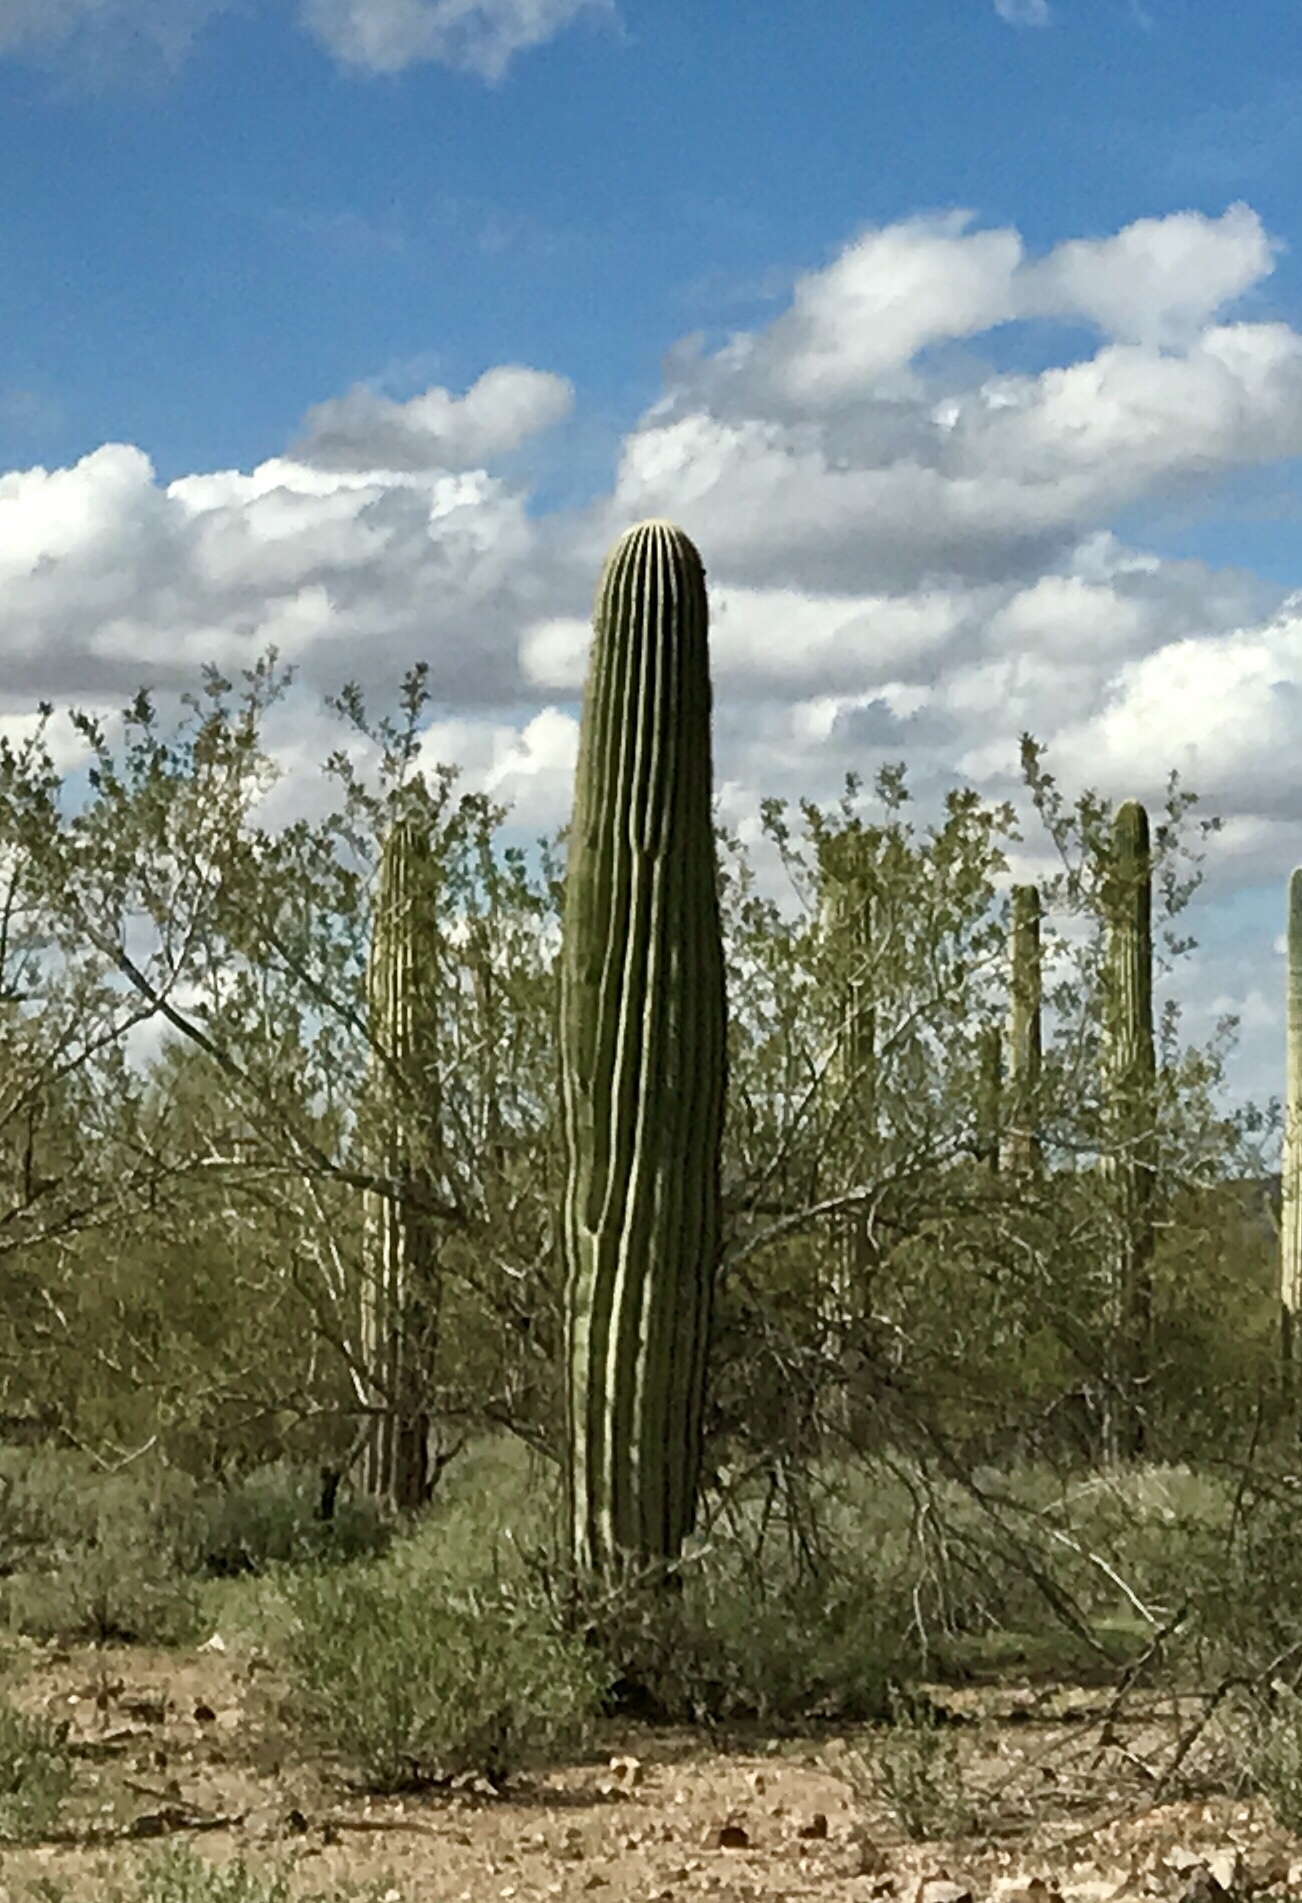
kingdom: Plantae
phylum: Tracheophyta
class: Magnoliopsida
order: Caryophyllales
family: Cactaceae
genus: Carnegiea
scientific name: Carnegiea gigantea
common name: Saguaro
